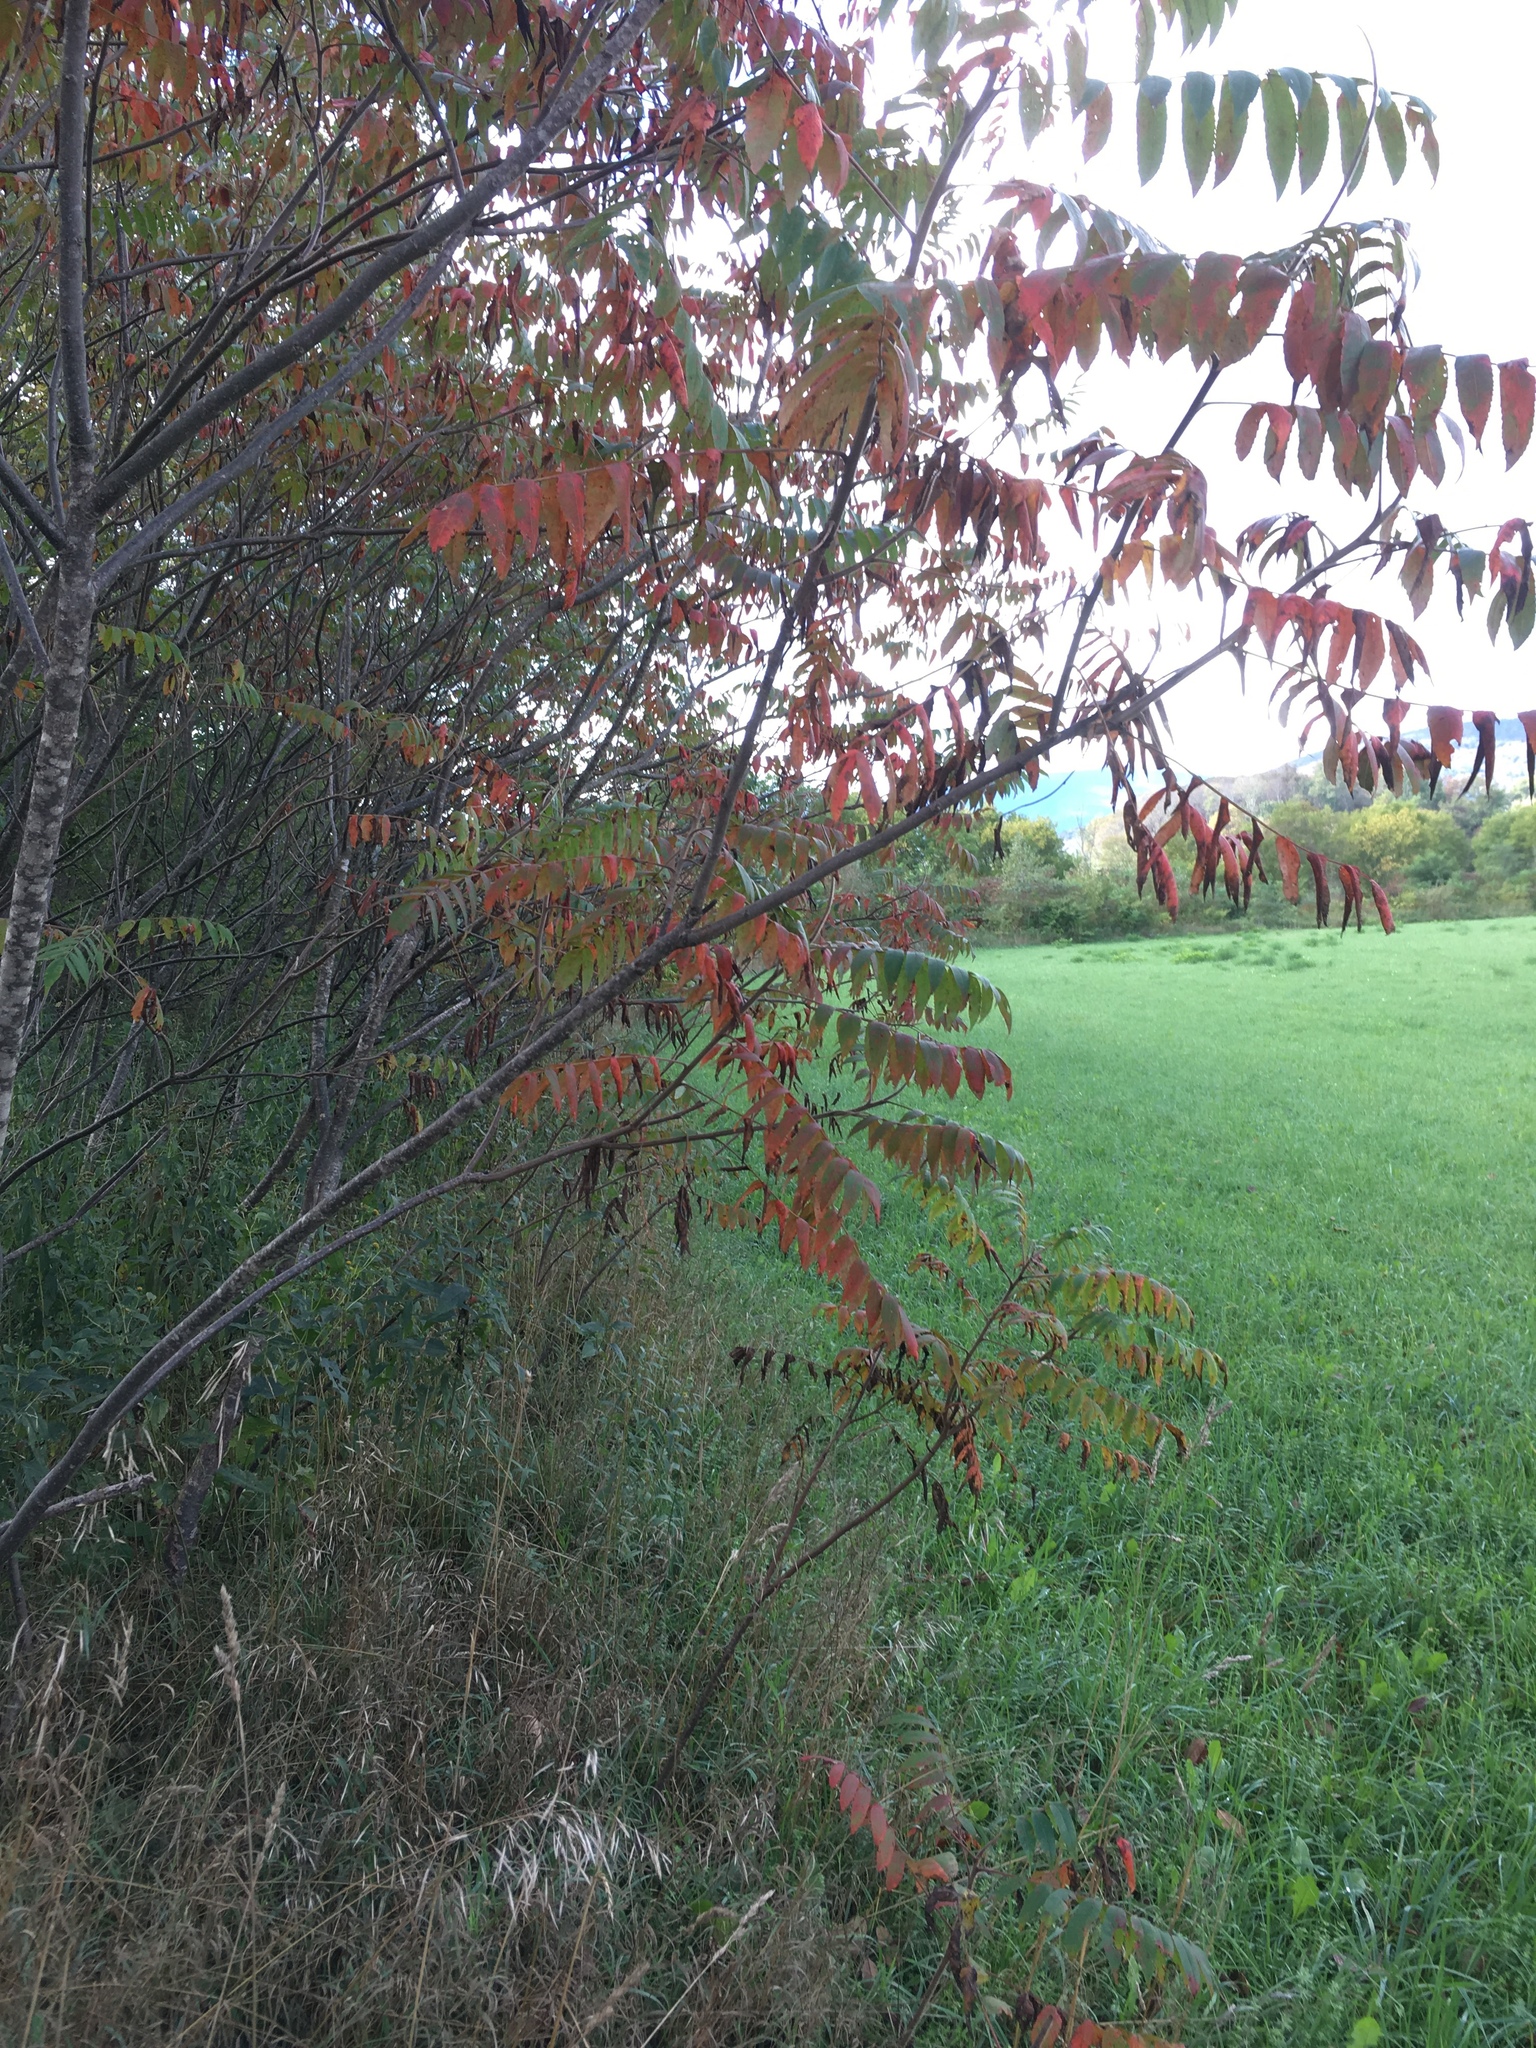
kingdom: Plantae
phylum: Tracheophyta
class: Magnoliopsida
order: Sapindales
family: Anacardiaceae
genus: Rhus
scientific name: Rhus typhina
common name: Staghorn sumac
